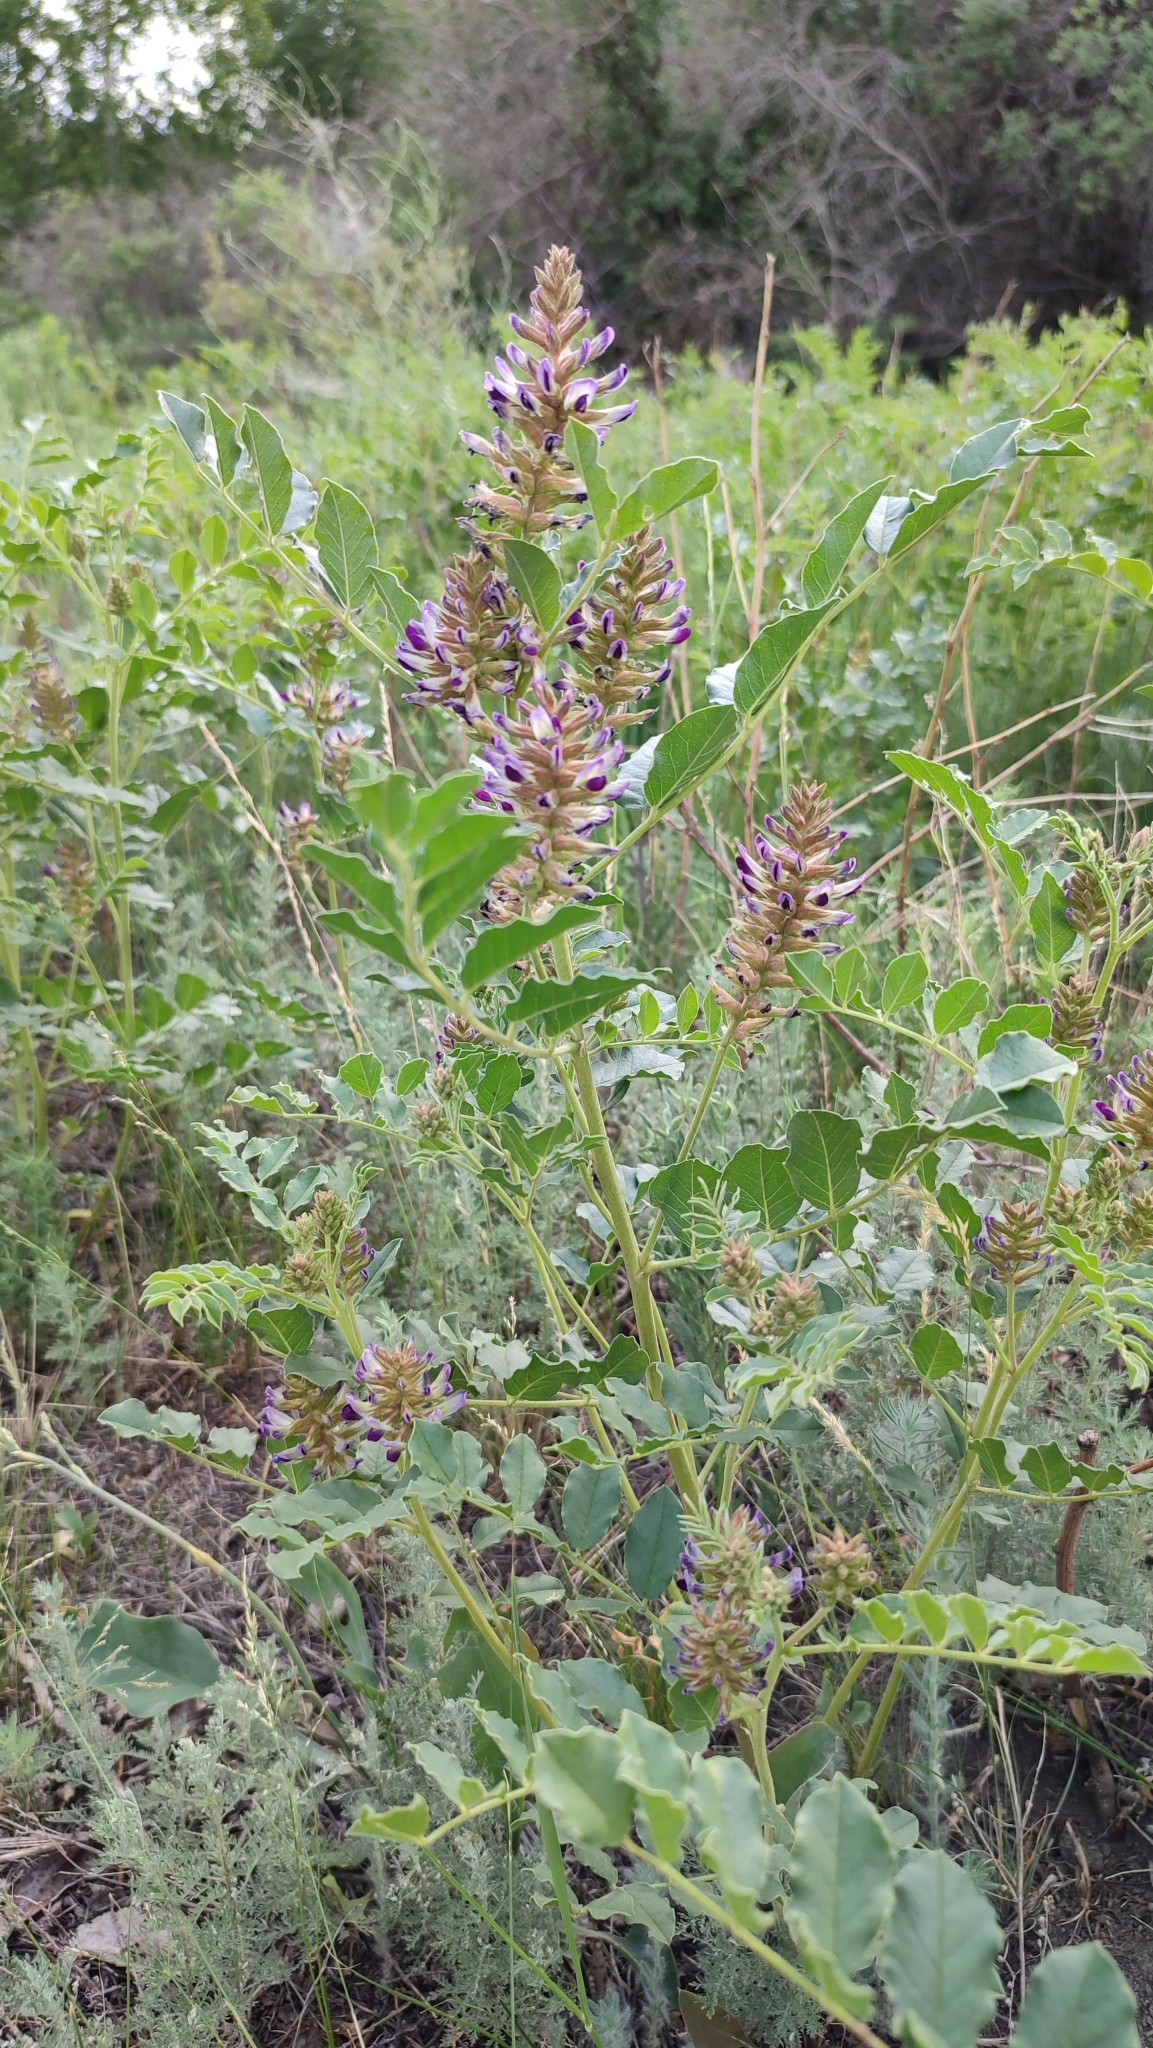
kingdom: Plantae
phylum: Tracheophyta
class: Magnoliopsida
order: Fabales
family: Fabaceae
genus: Glycyrrhiza
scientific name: Glycyrrhiza uralensis
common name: Chinese licorice
